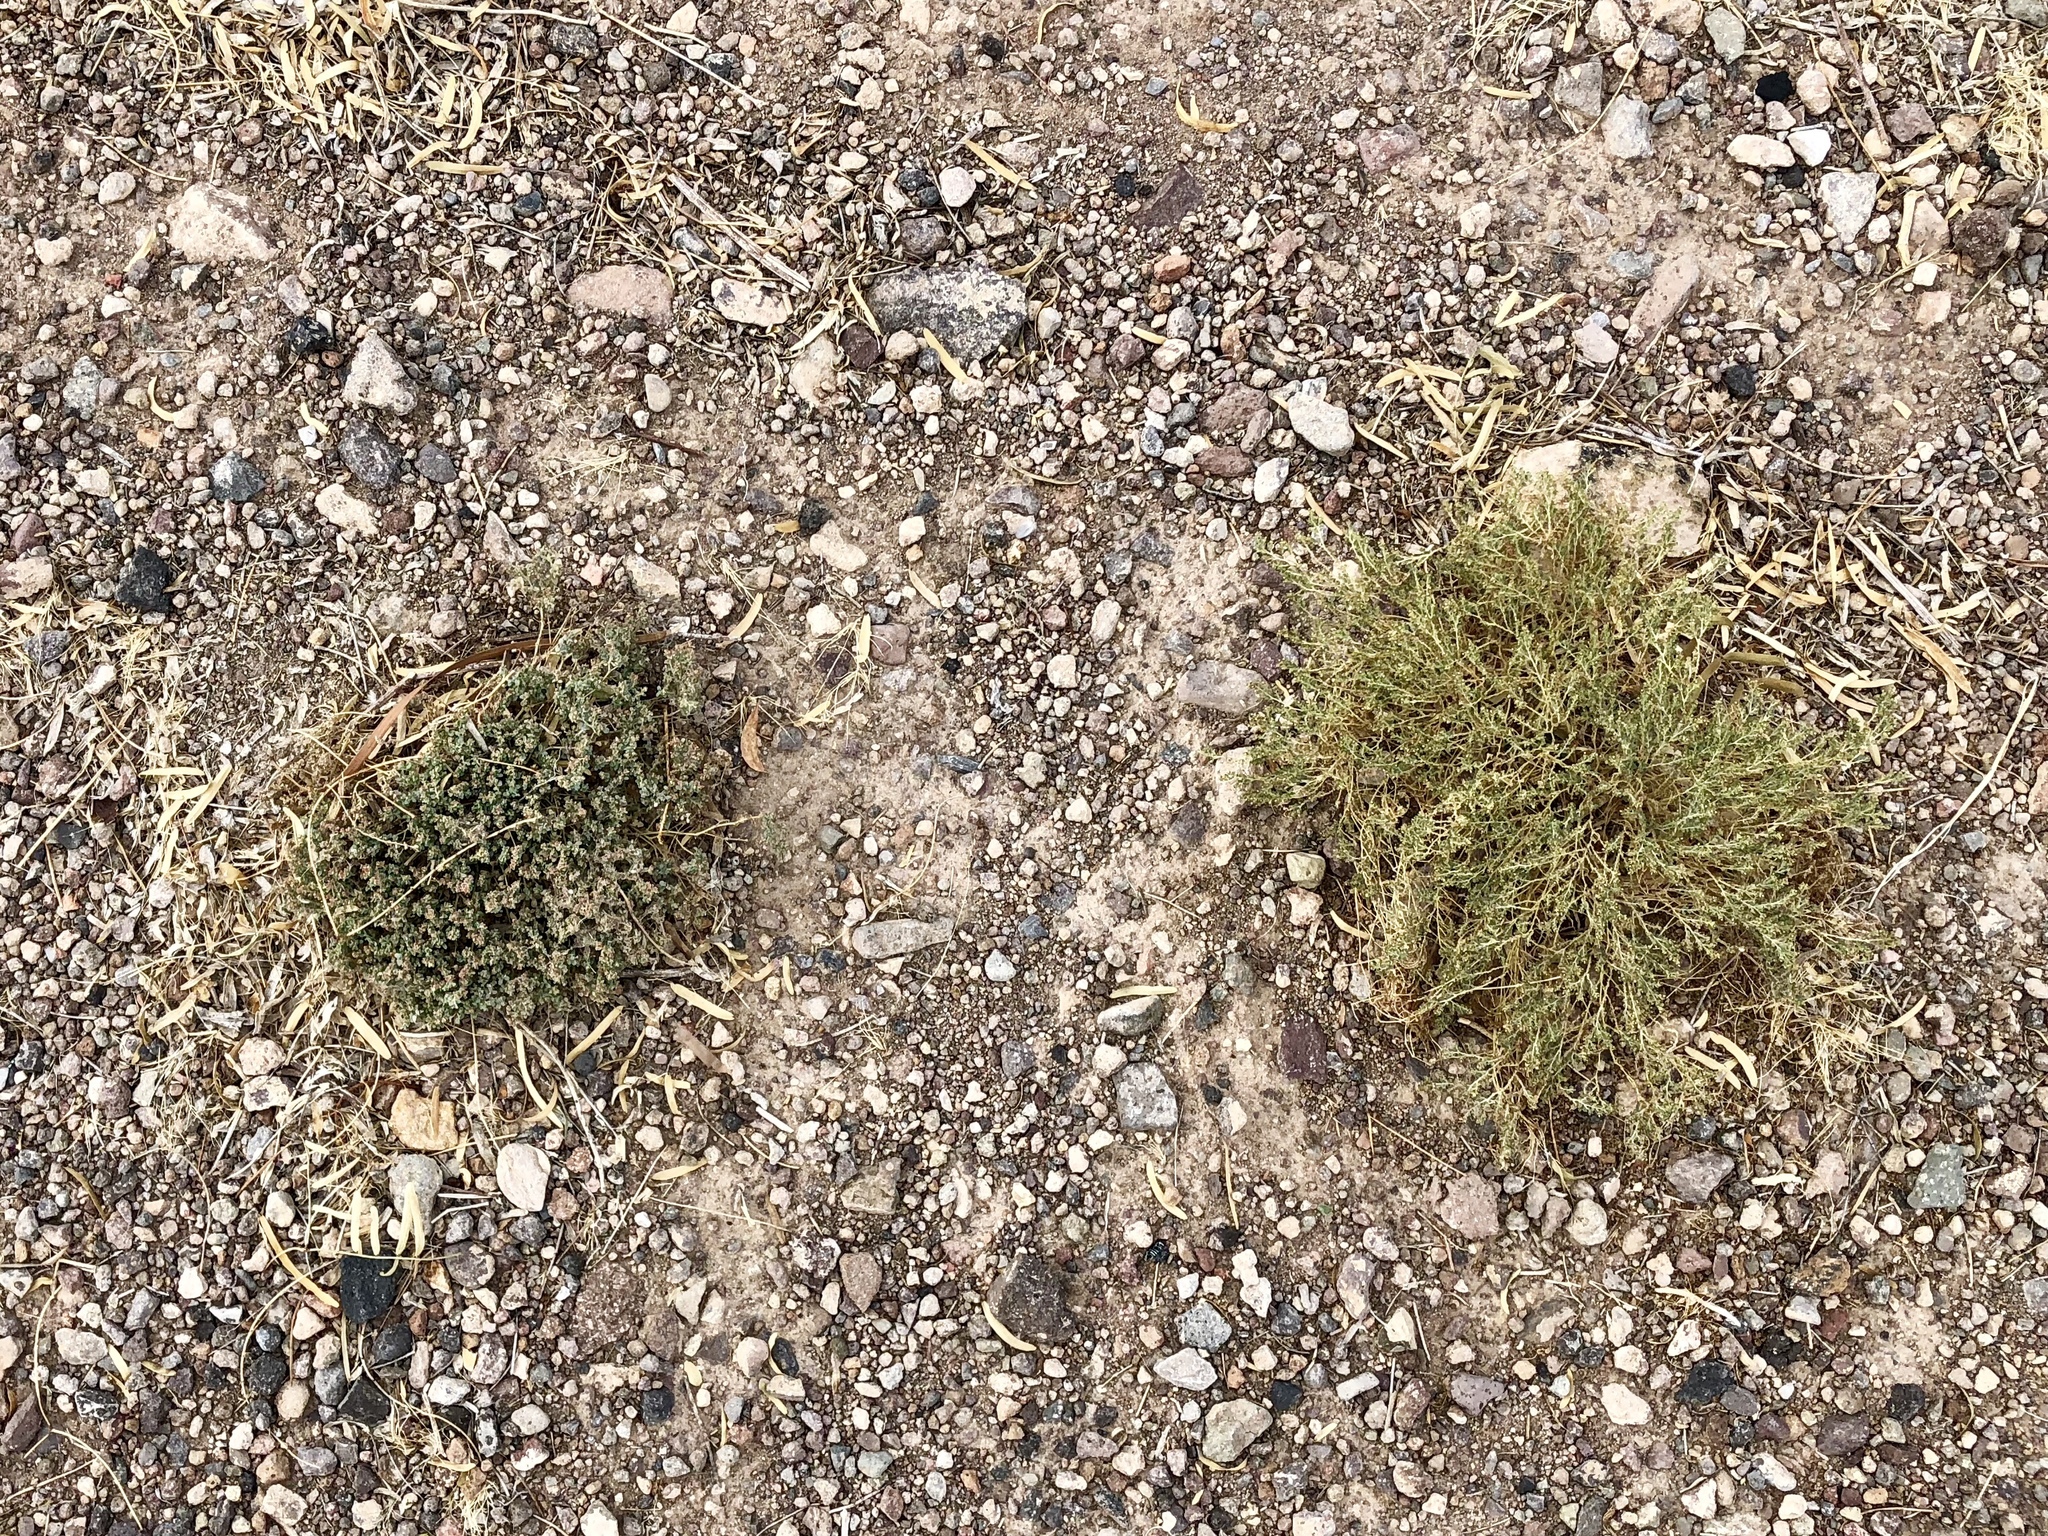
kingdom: Plantae
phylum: Tracheophyta
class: Magnoliopsida
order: Malpighiales
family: Euphorbiaceae
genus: Euphorbia
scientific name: Euphorbia polycarpa
